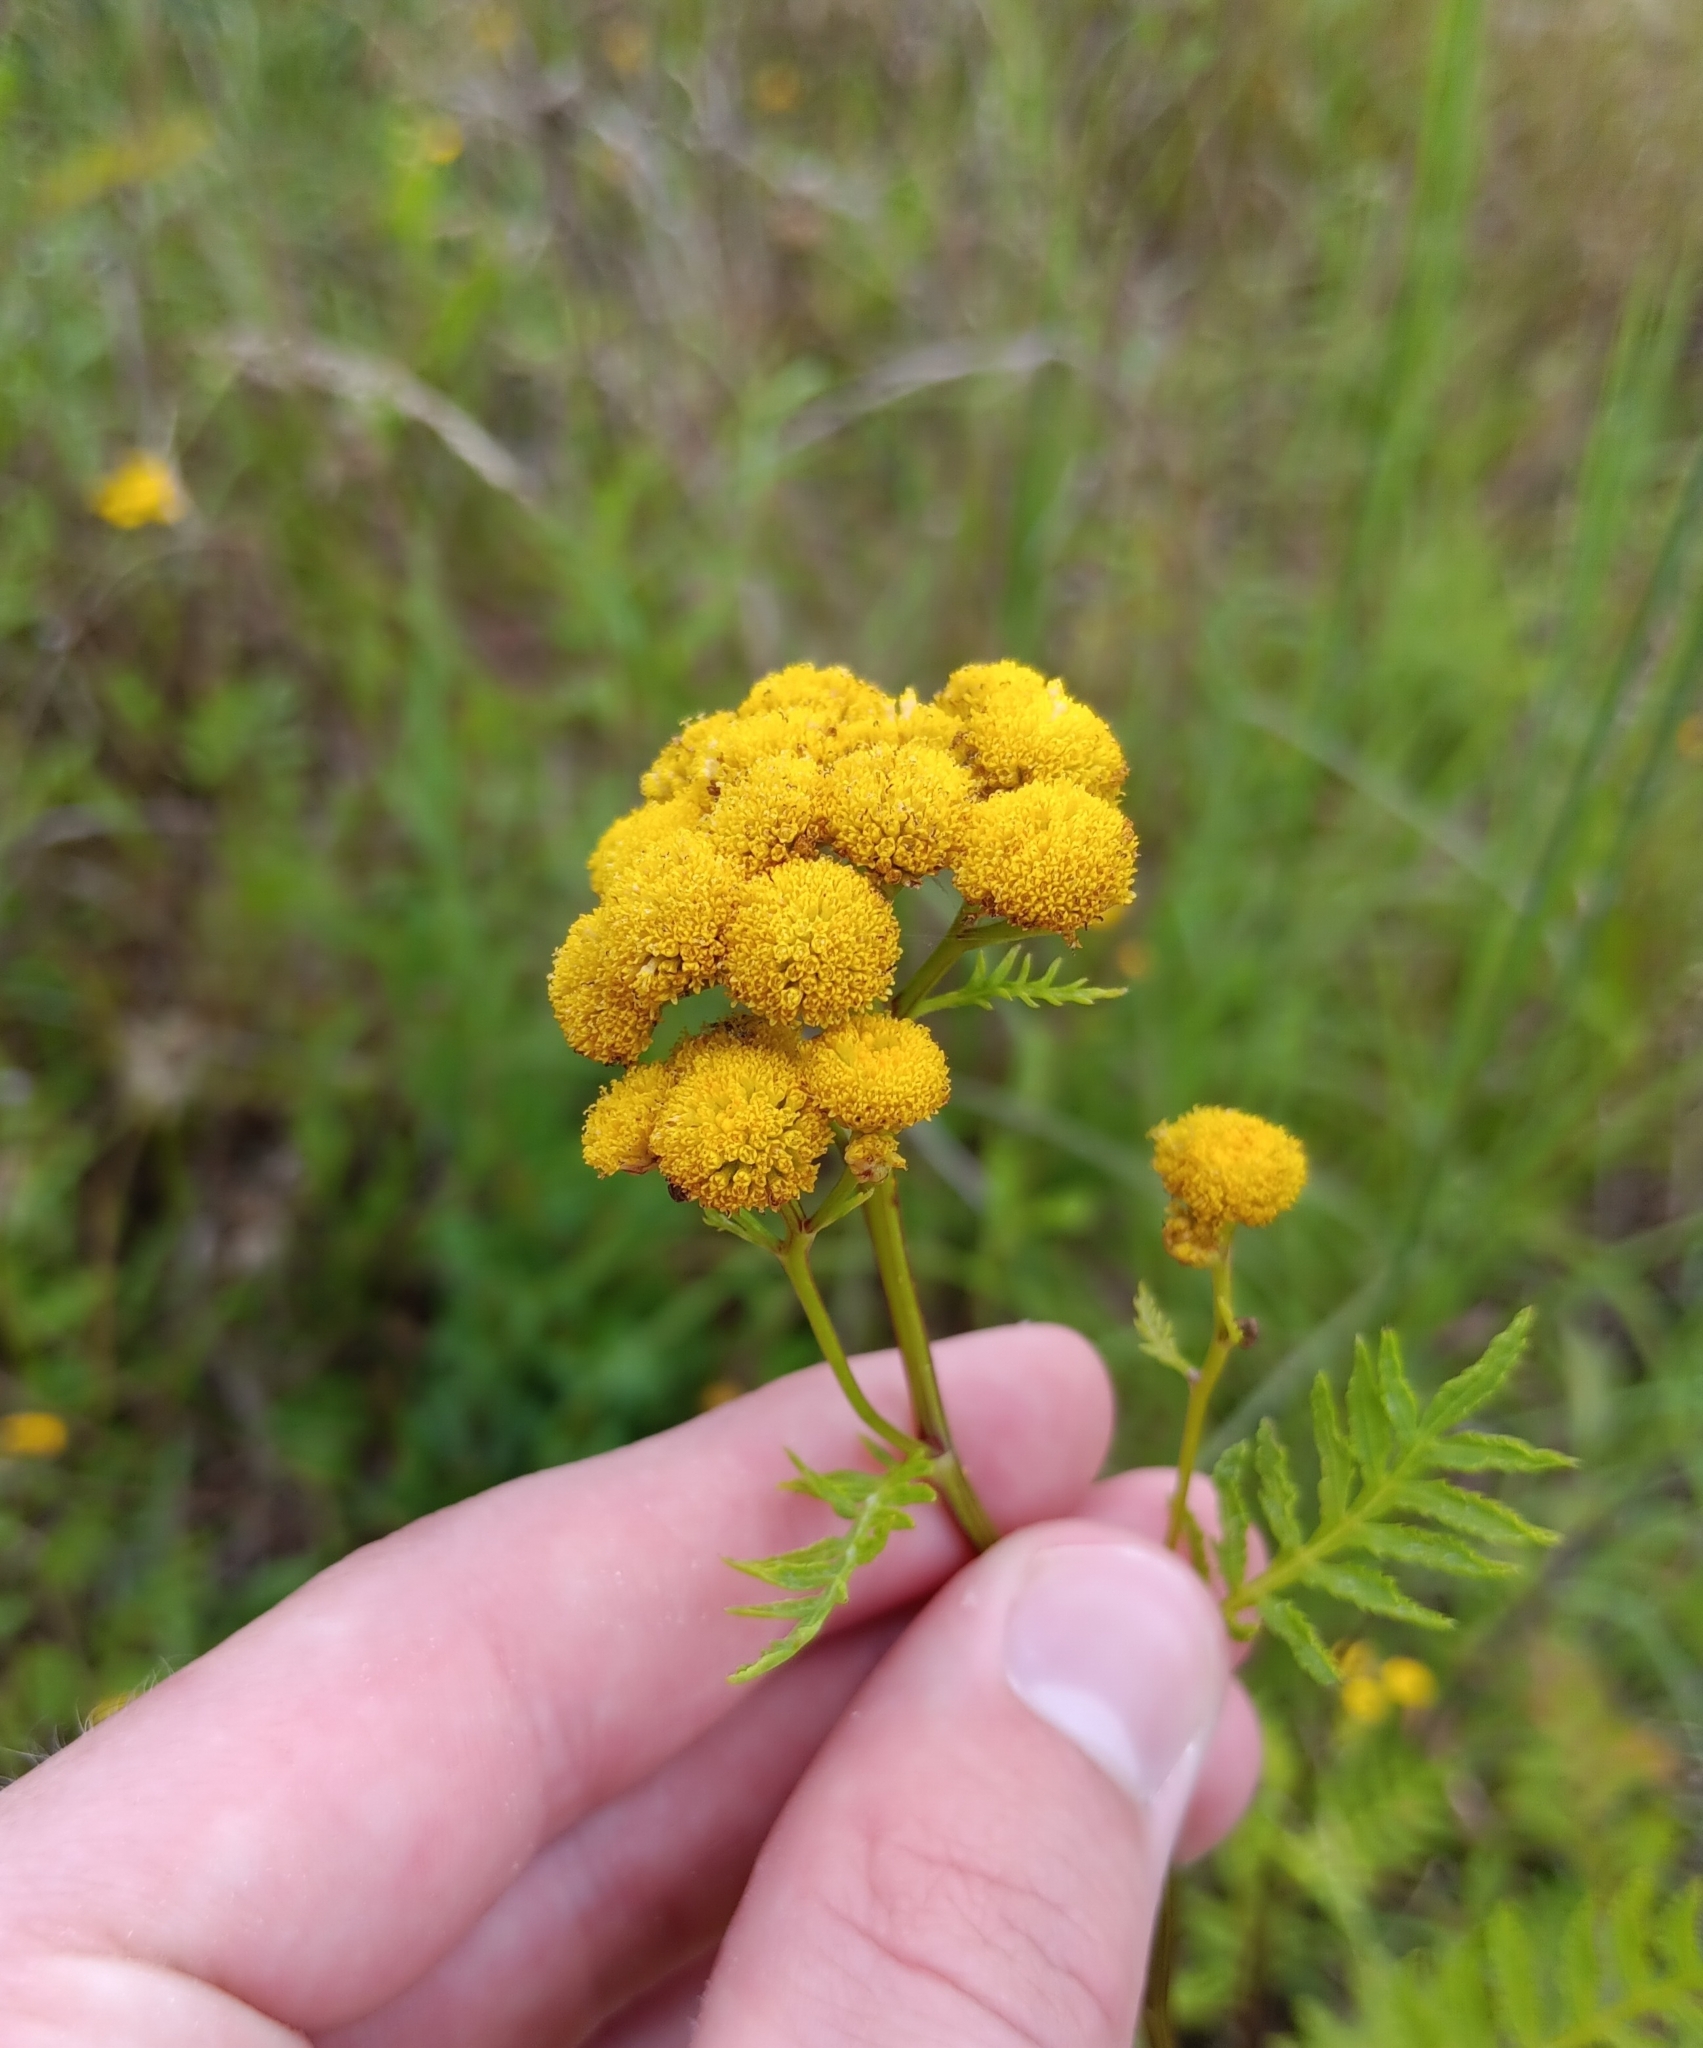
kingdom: Plantae
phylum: Tracheophyta
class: Magnoliopsida
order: Asterales
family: Asteraceae
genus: Tanacetum
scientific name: Tanacetum vulgare
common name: Common tansy
